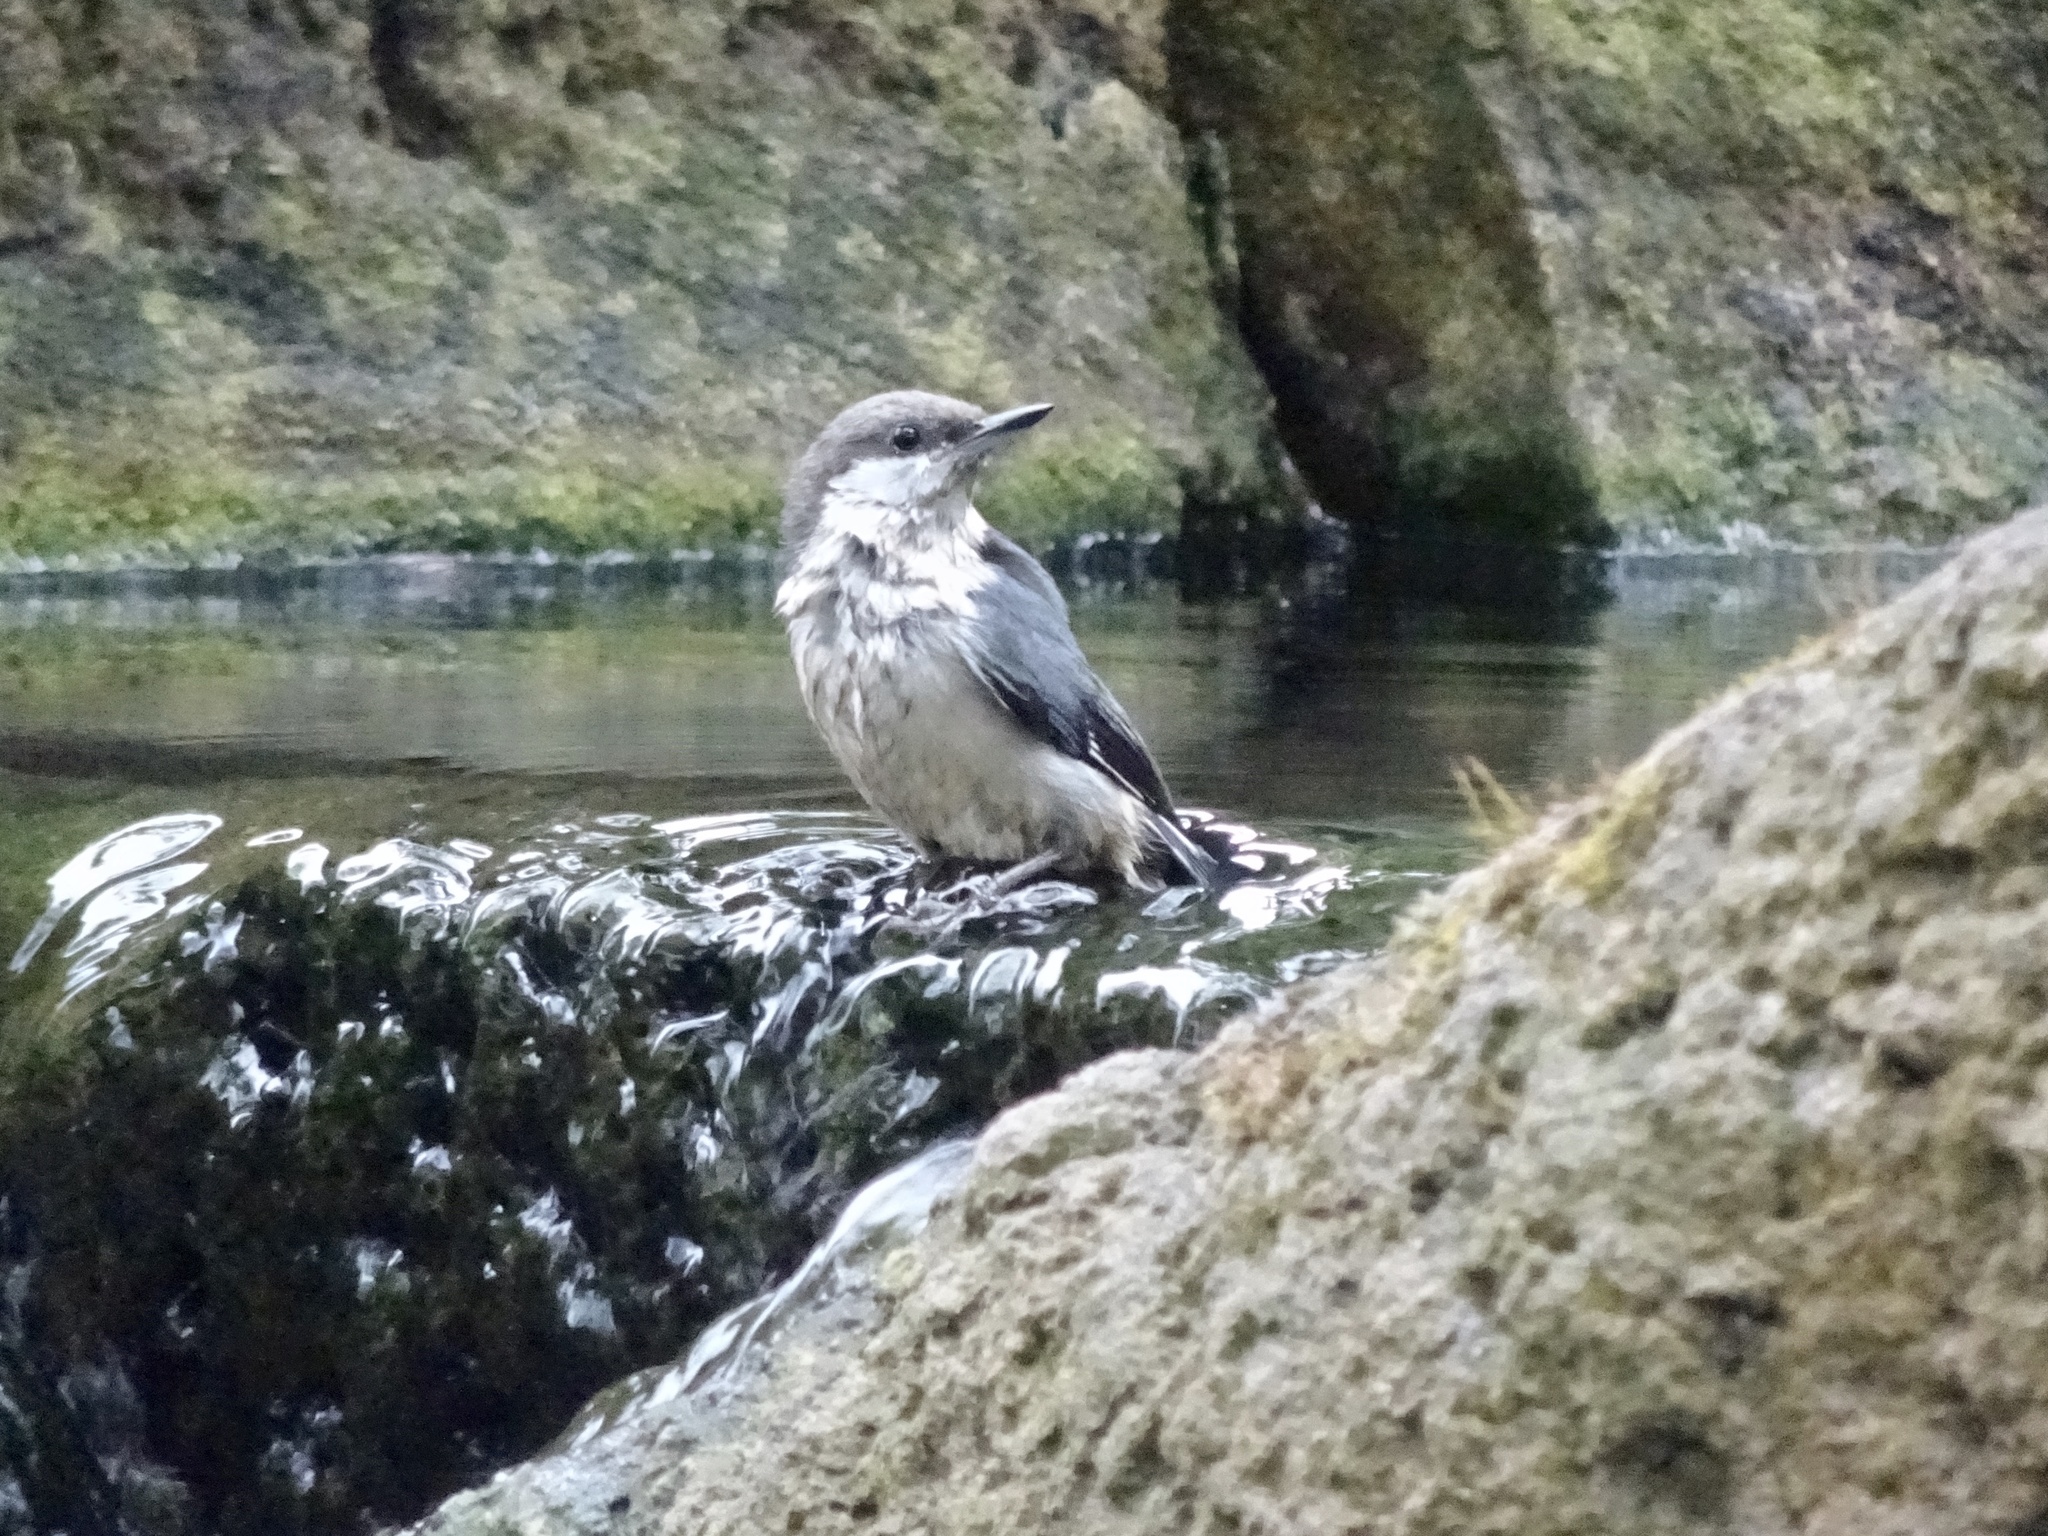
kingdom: Animalia
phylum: Chordata
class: Aves
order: Passeriformes
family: Sittidae
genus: Sitta
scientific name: Sitta pygmaea
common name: Pygmy nuthatch
